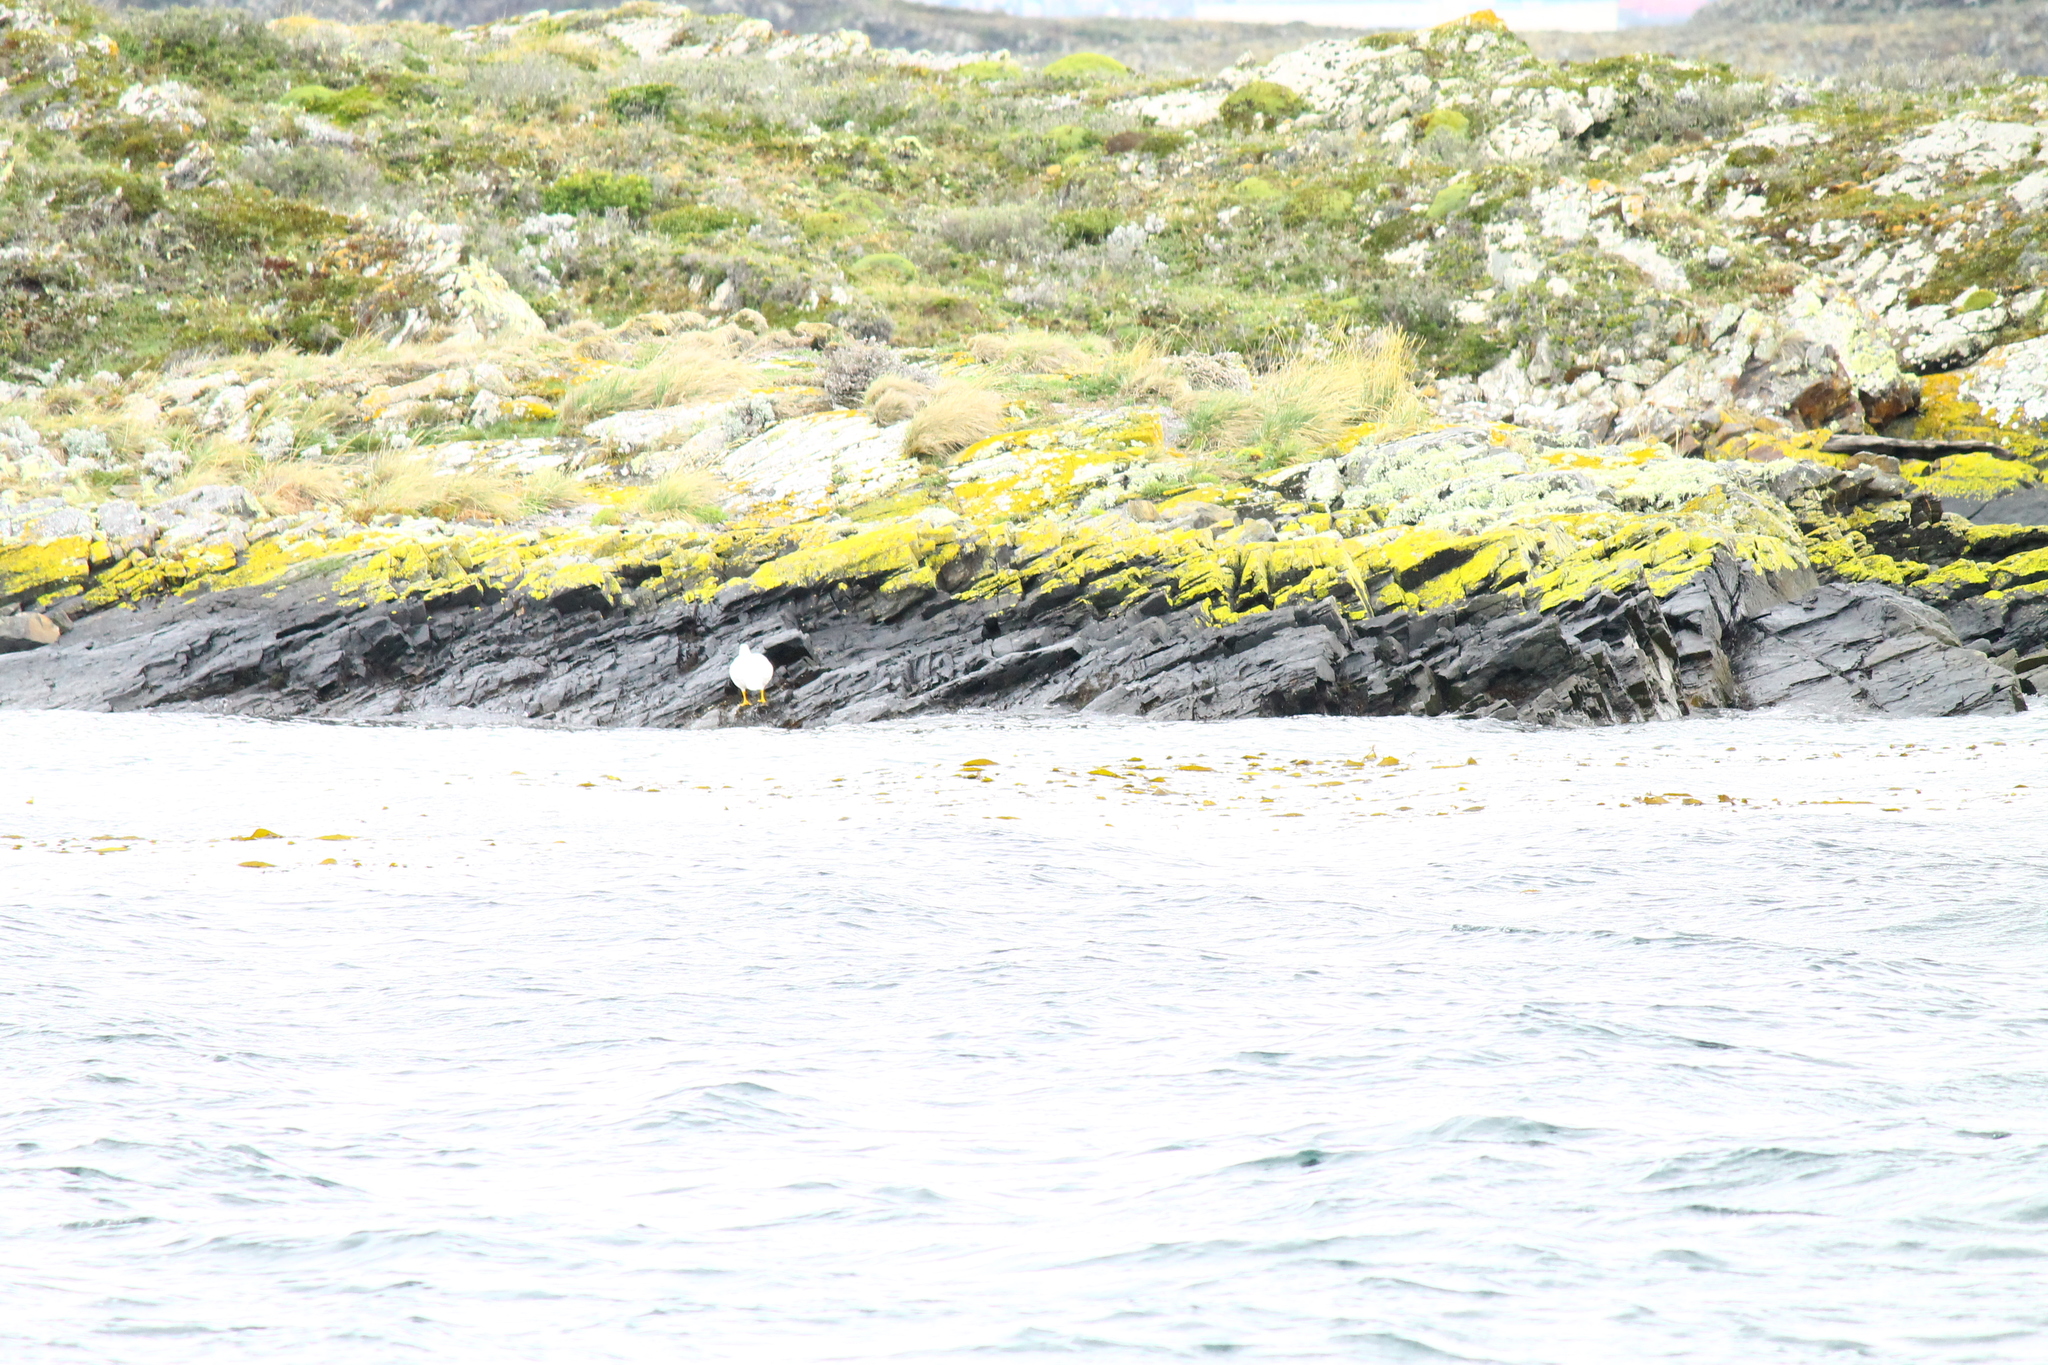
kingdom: Animalia
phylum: Chordata
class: Aves
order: Anseriformes
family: Anatidae
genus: Chloephaga
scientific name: Chloephaga hybrida
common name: Kelp goose
